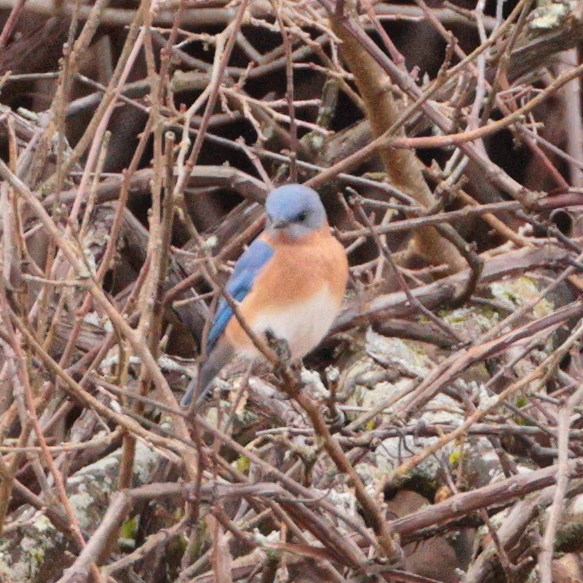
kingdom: Animalia
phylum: Chordata
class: Aves
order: Passeriformes
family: Turdidae
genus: Sialia
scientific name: Sialia sialis
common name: Eastern bluebird
